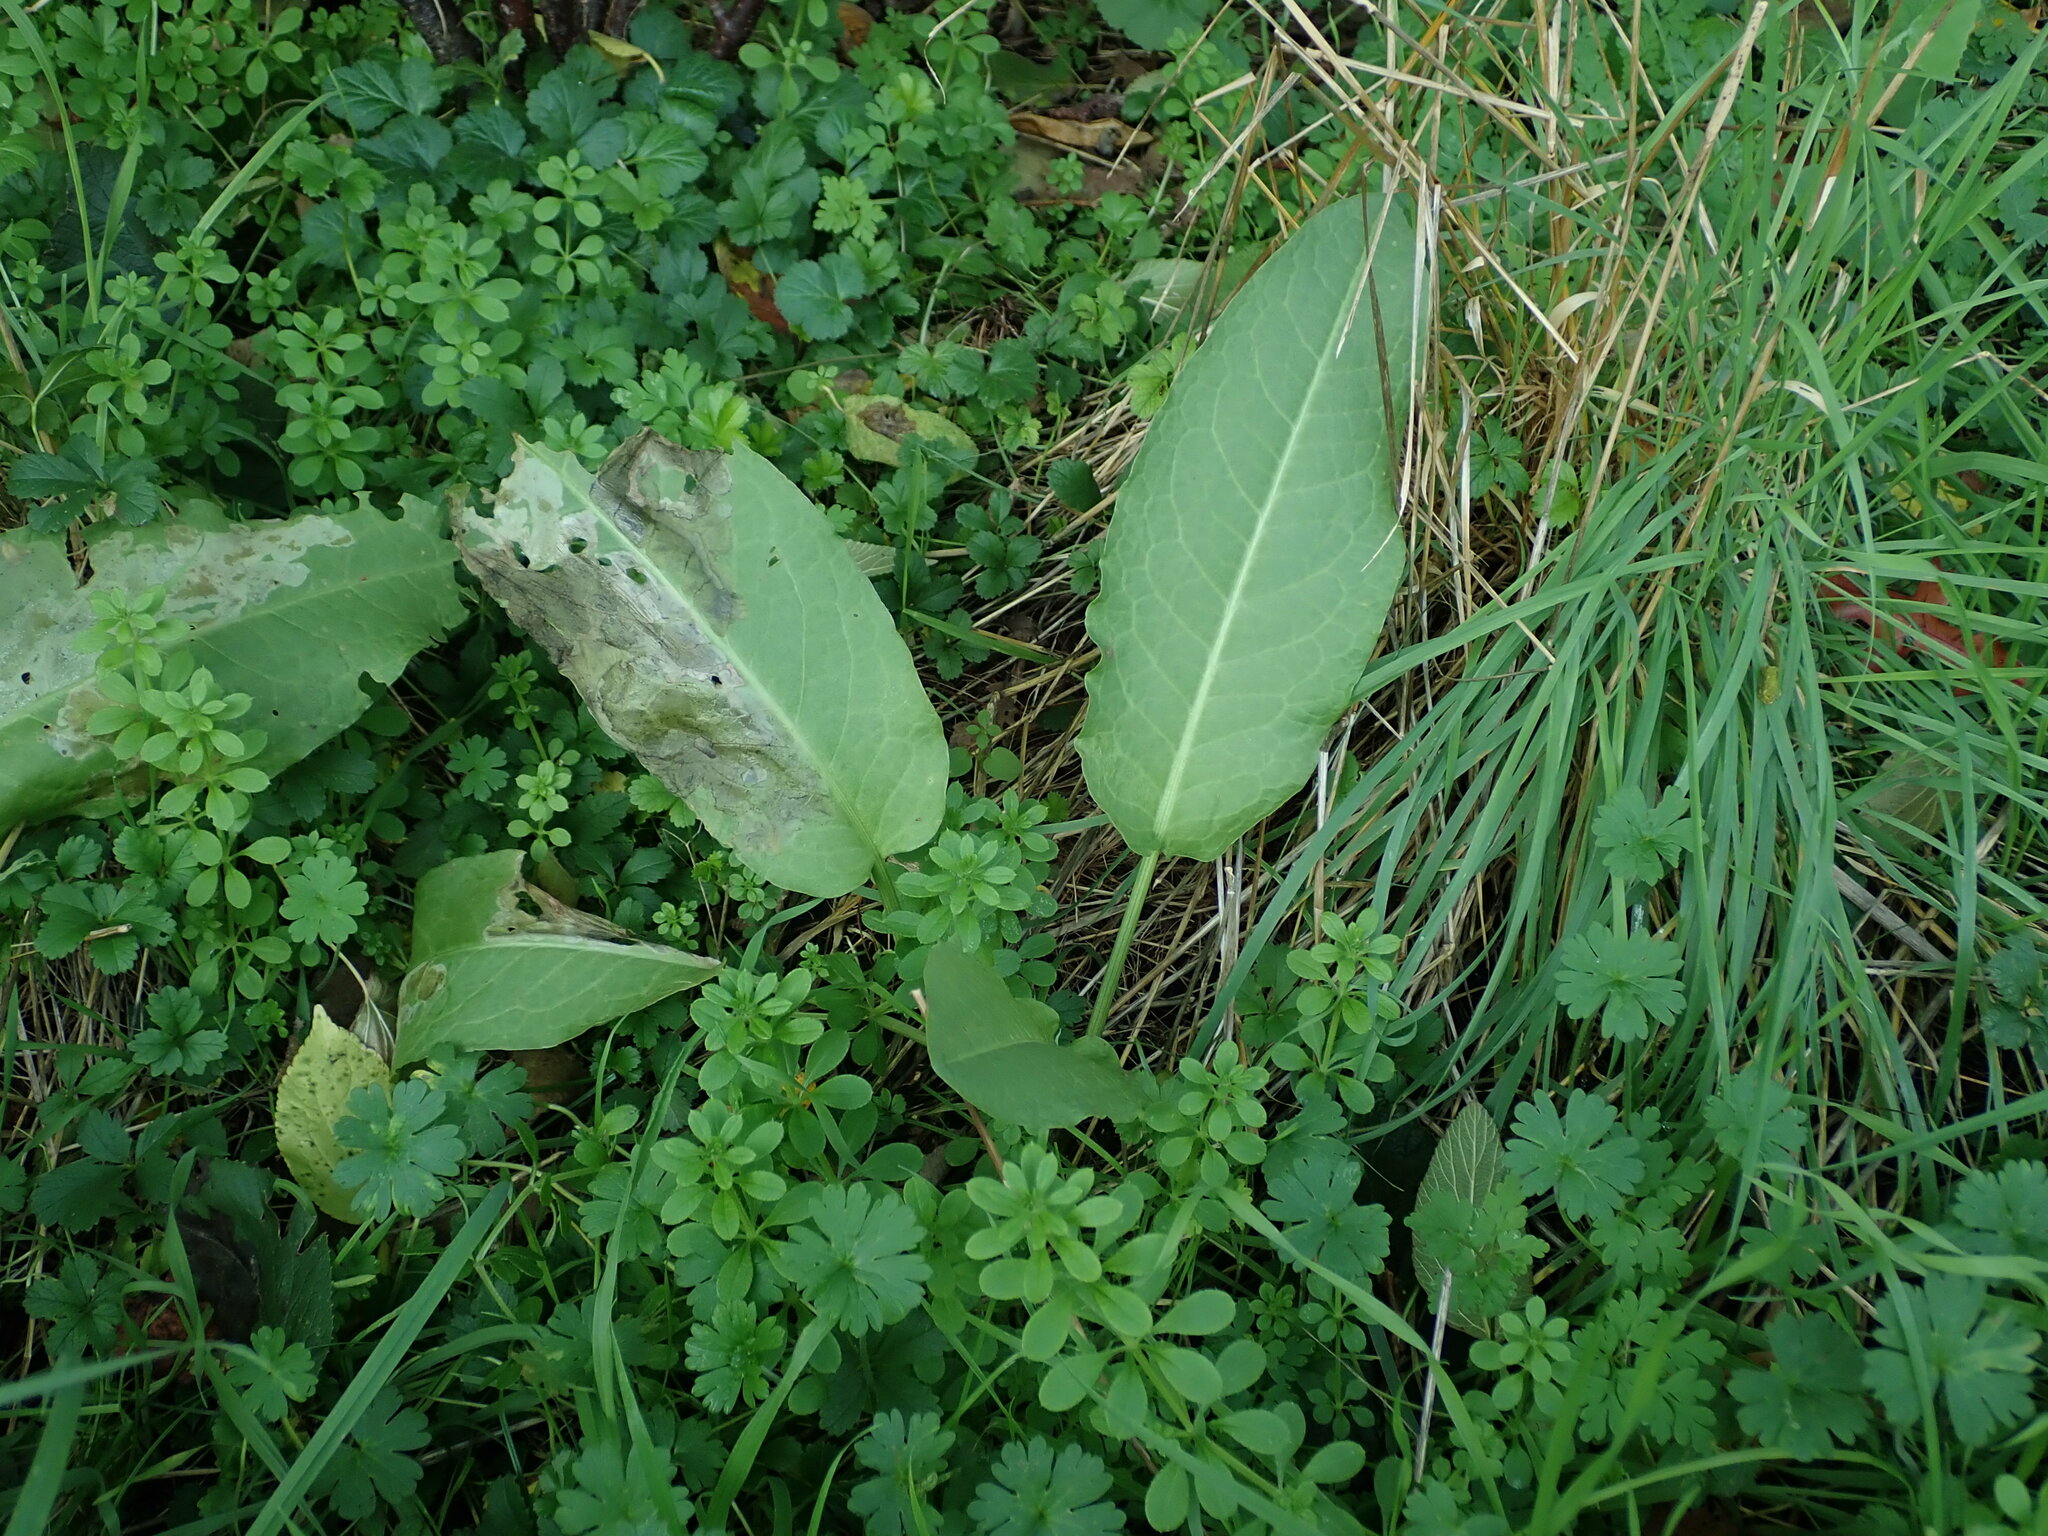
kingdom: Plantae
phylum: Tracheophyta
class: Magnoliopsida
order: Caryophyllales
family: Polygonaceae
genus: Rumex
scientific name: Rumex obtusifolius
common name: Bitter dock
